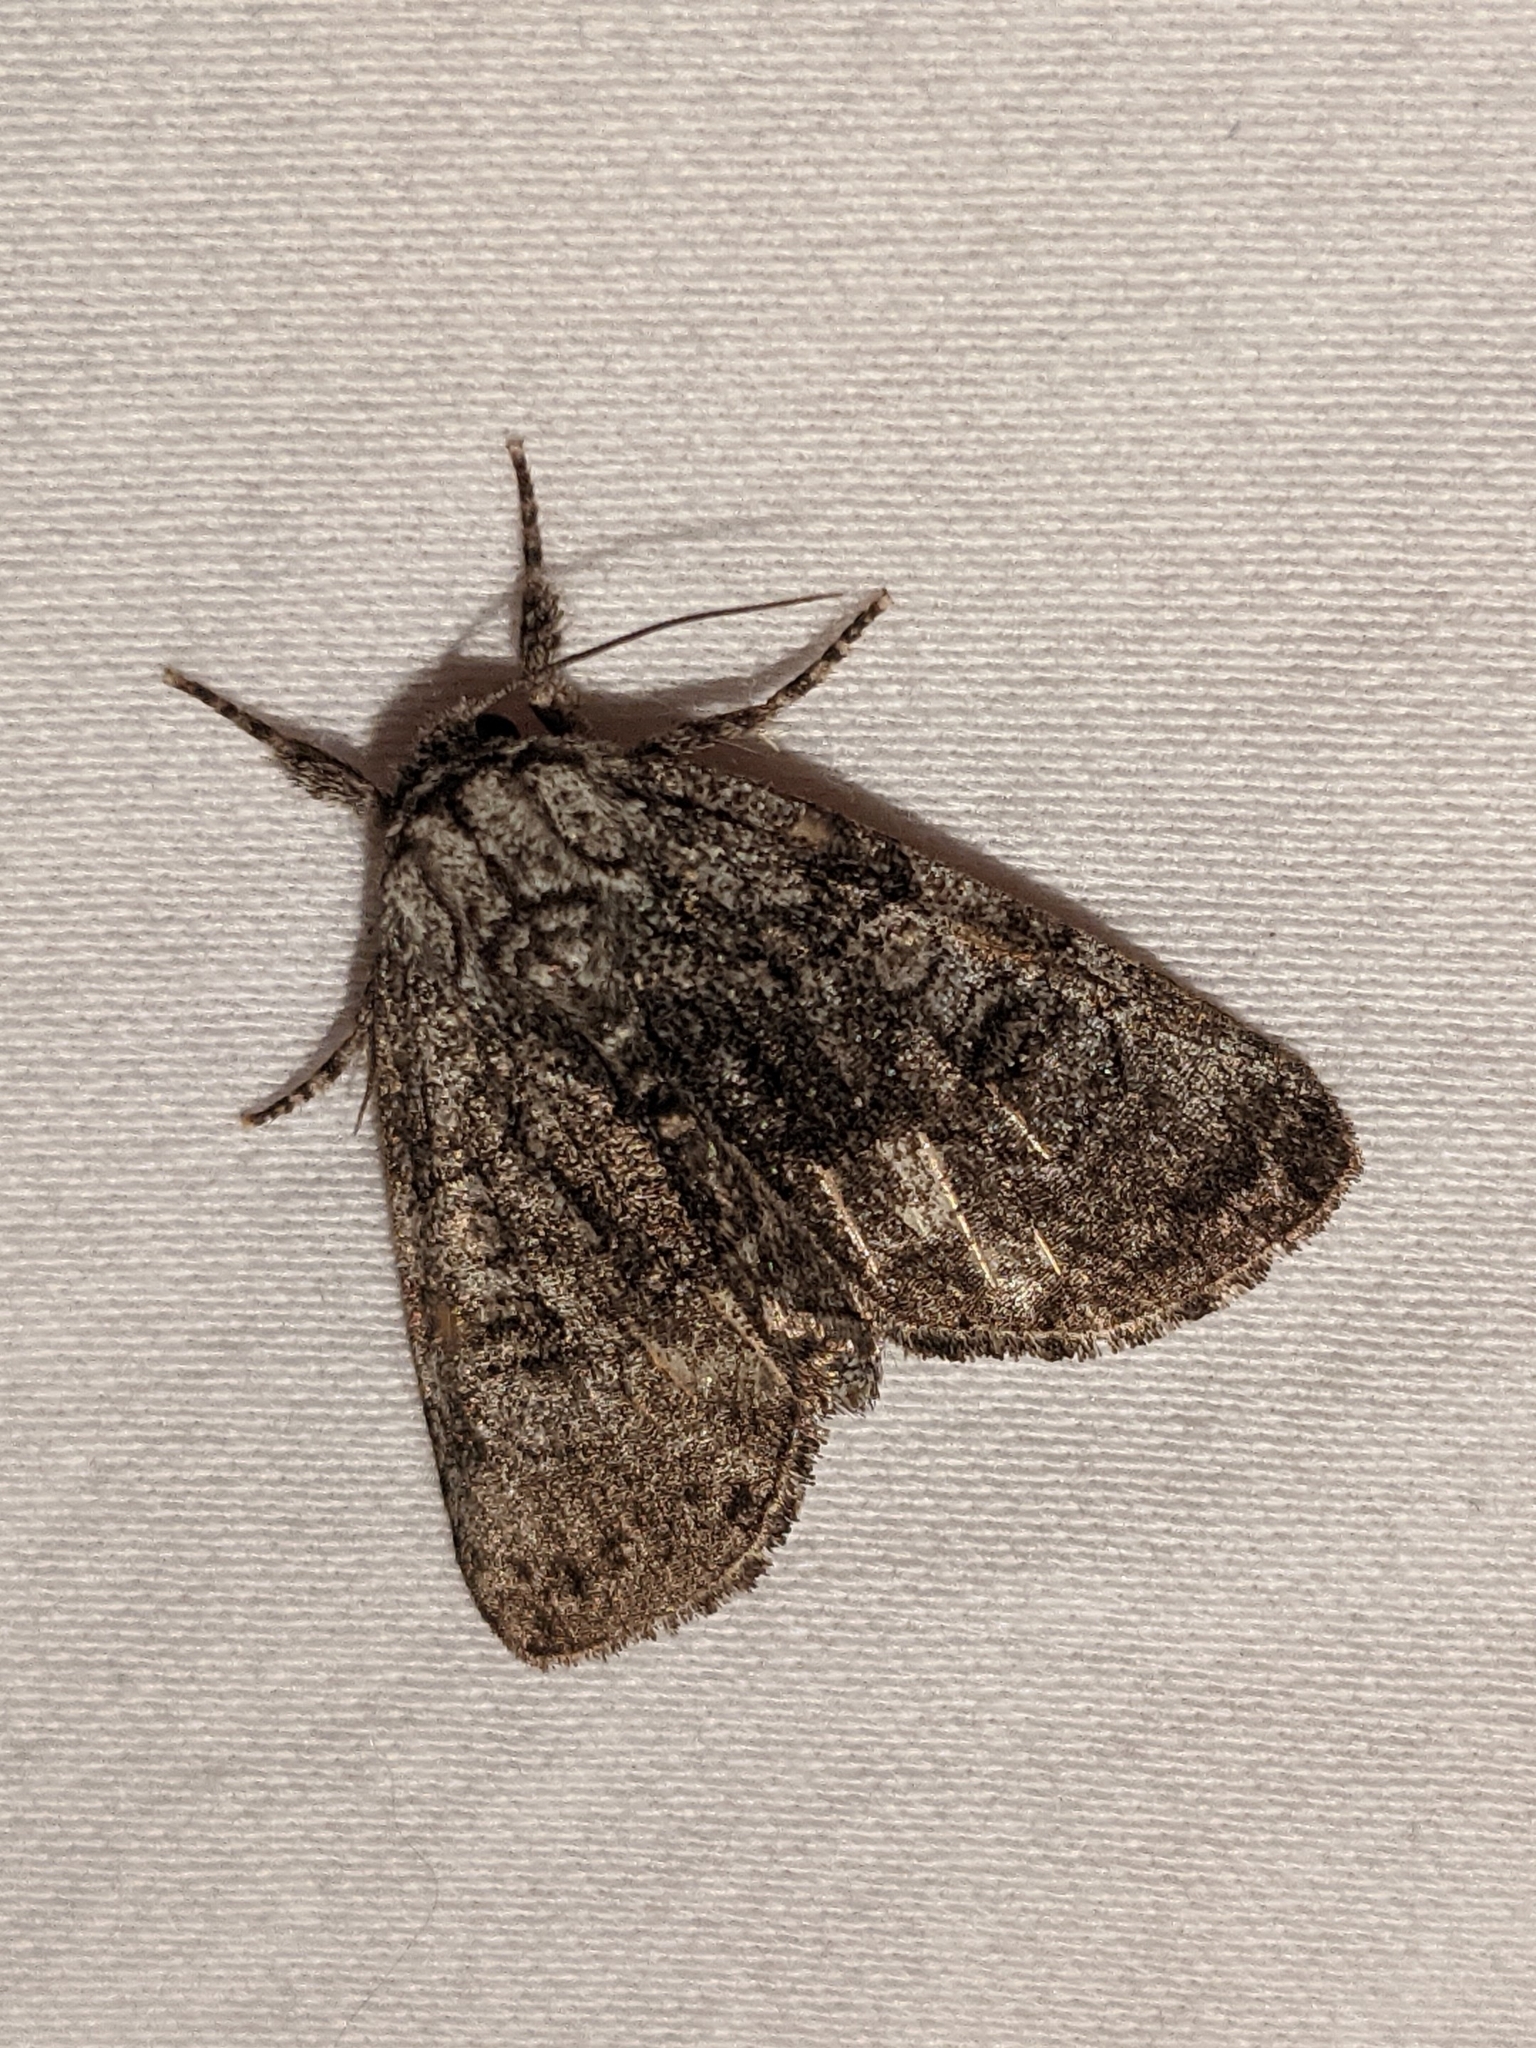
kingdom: Animalia
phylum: Arthropoda
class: Insecta
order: Lepidoptera
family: Noctuidae
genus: Raphia
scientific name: Raphia frater
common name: Brother
